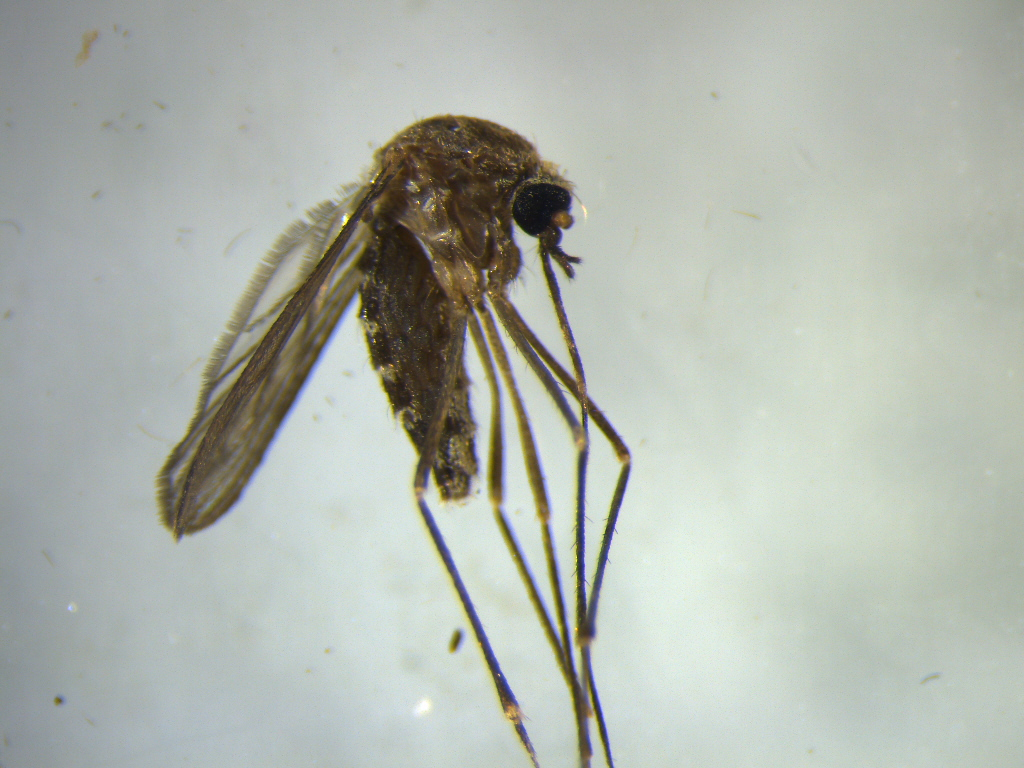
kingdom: Animalia
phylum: Arthropoda
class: Insecta
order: Diptera
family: Culicidae
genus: Culex
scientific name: Culex pervigilans
